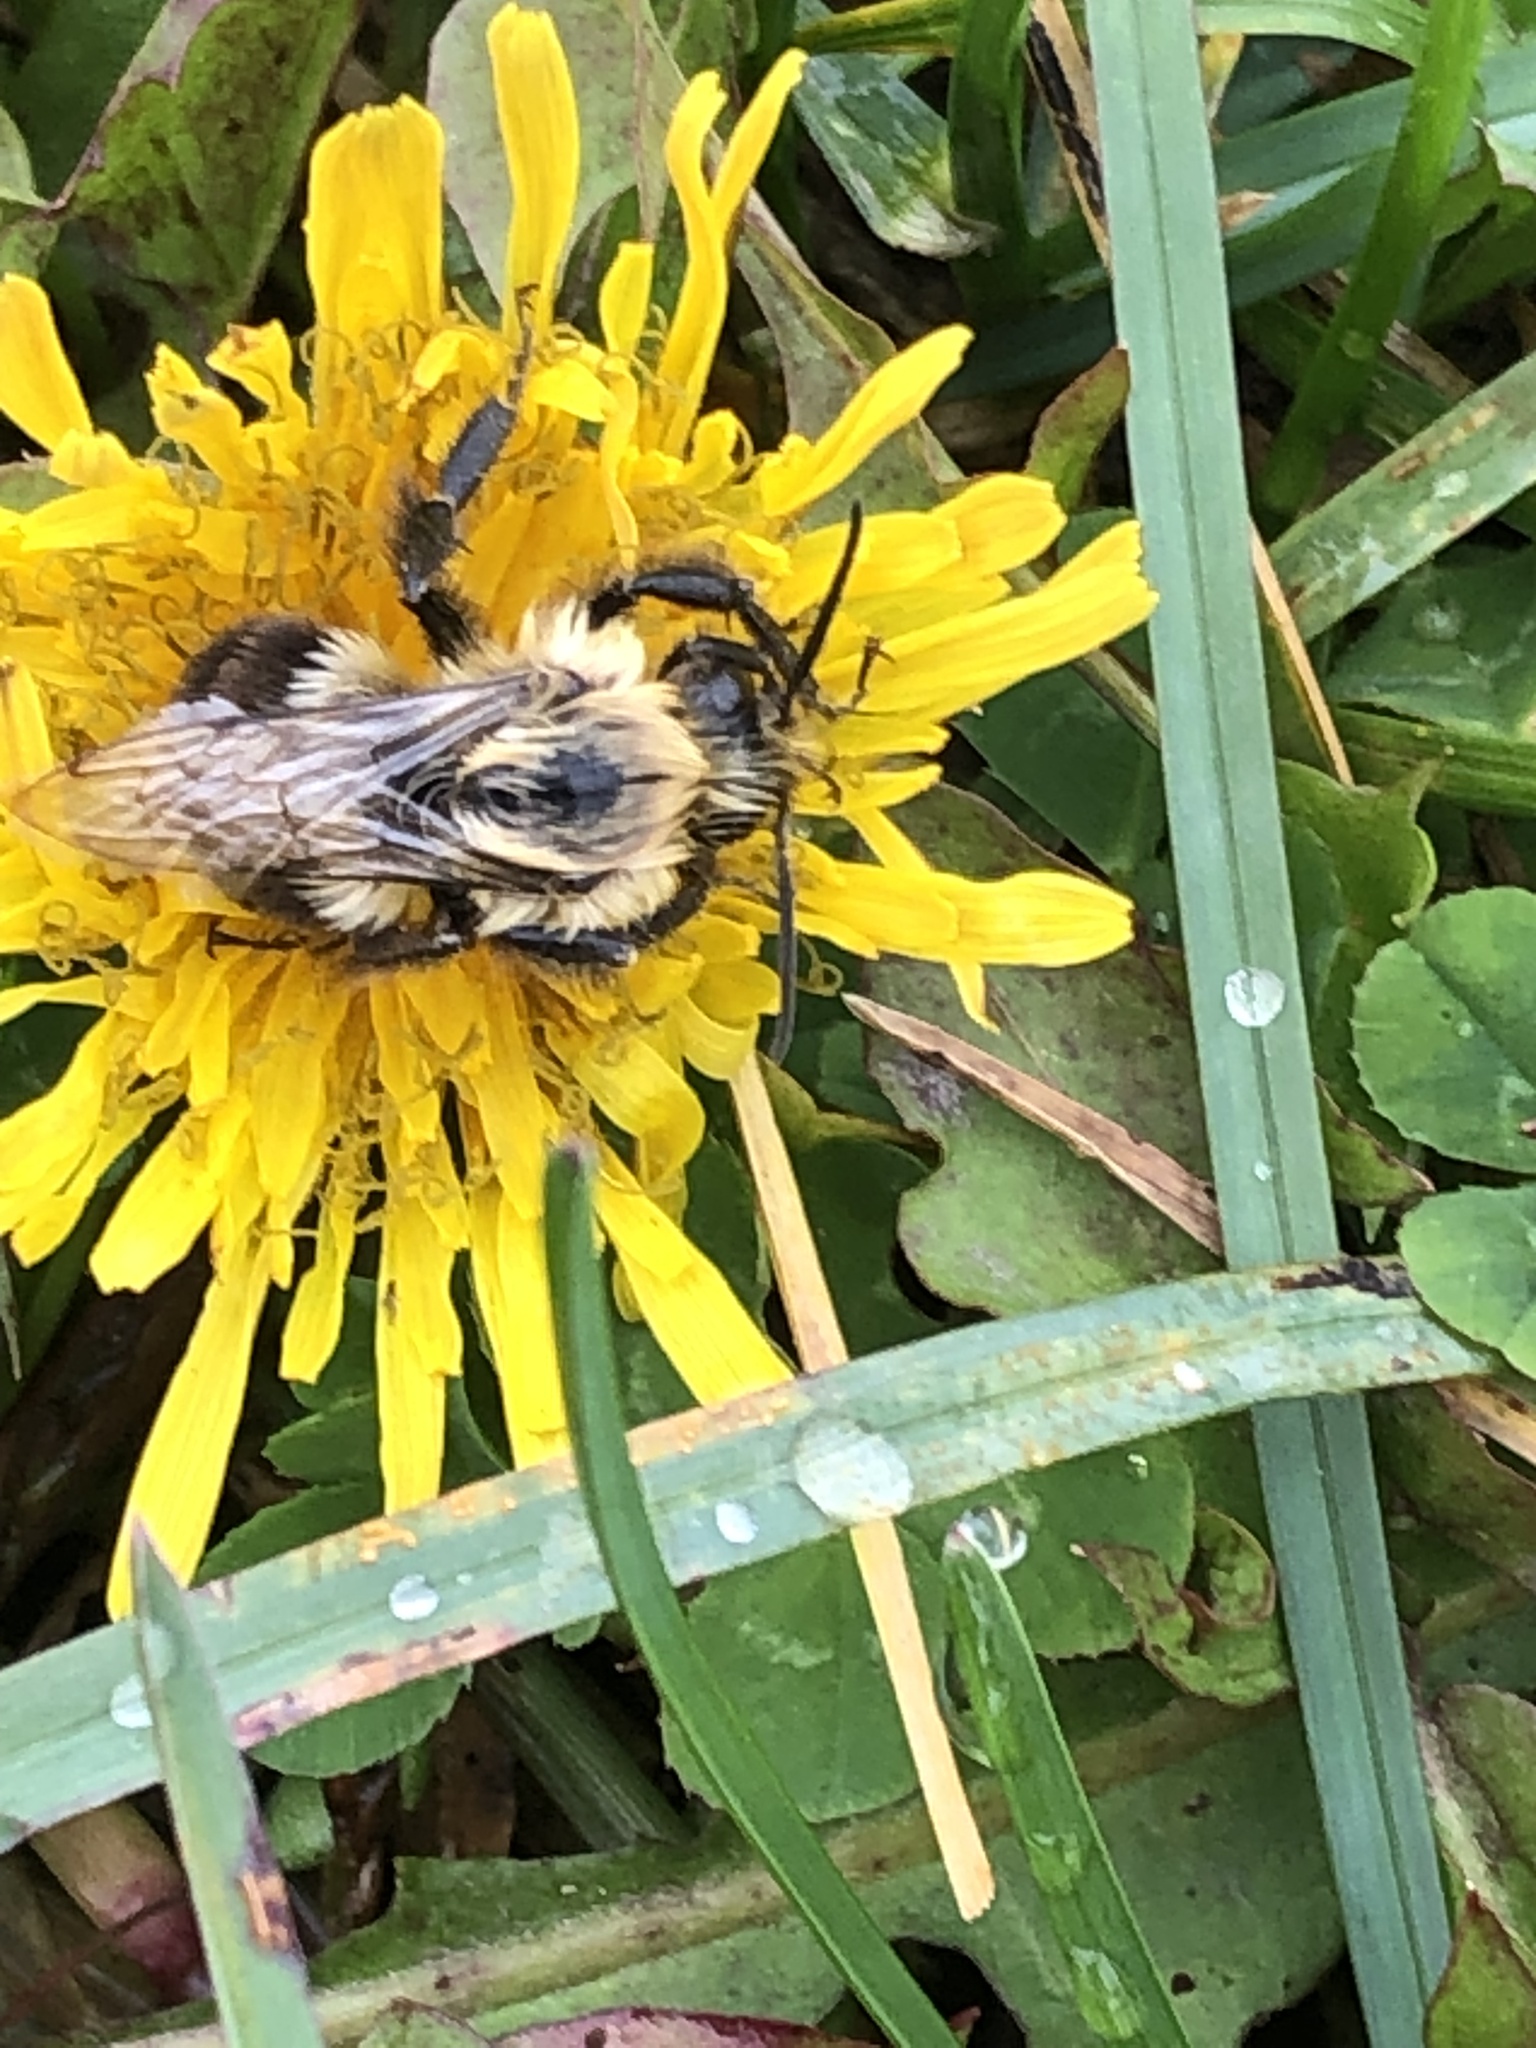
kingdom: Animalia
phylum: Arthropoda
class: Insecta
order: Hymenoptera
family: Apidae
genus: Bombus
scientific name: Bombus impatiens
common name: Common eastern bumble bee
